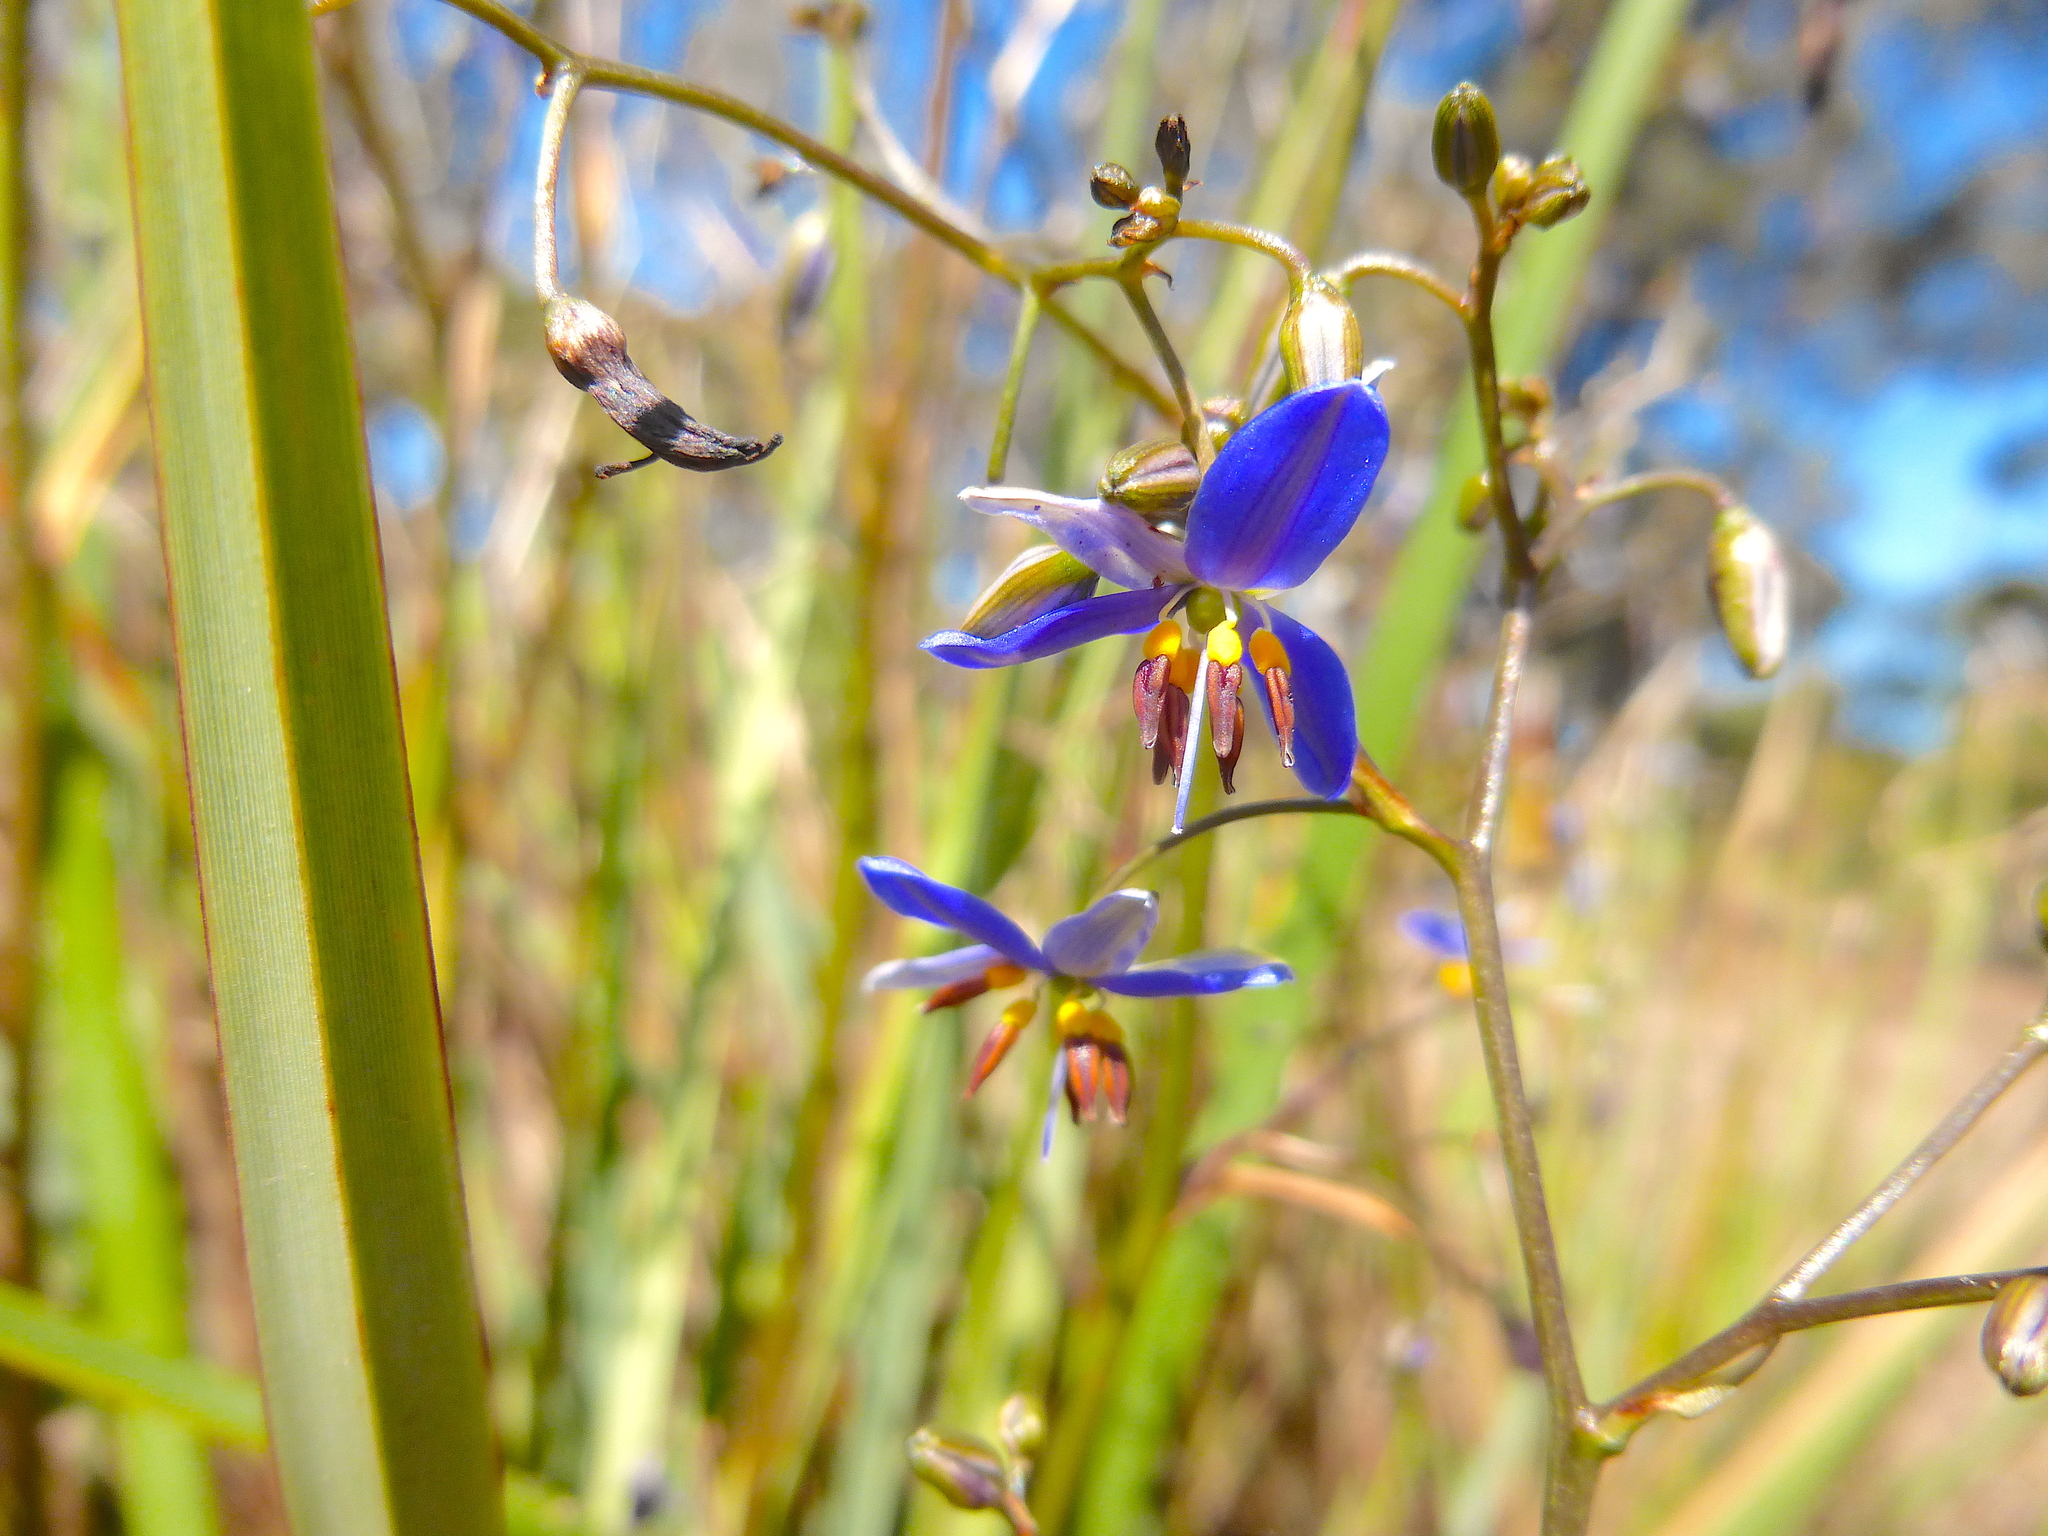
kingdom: Plantae
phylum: Tracheophyta
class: Liliopsida
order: Asparagales
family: Asphodelaceae
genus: Dianella
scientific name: Dianella revoluta
